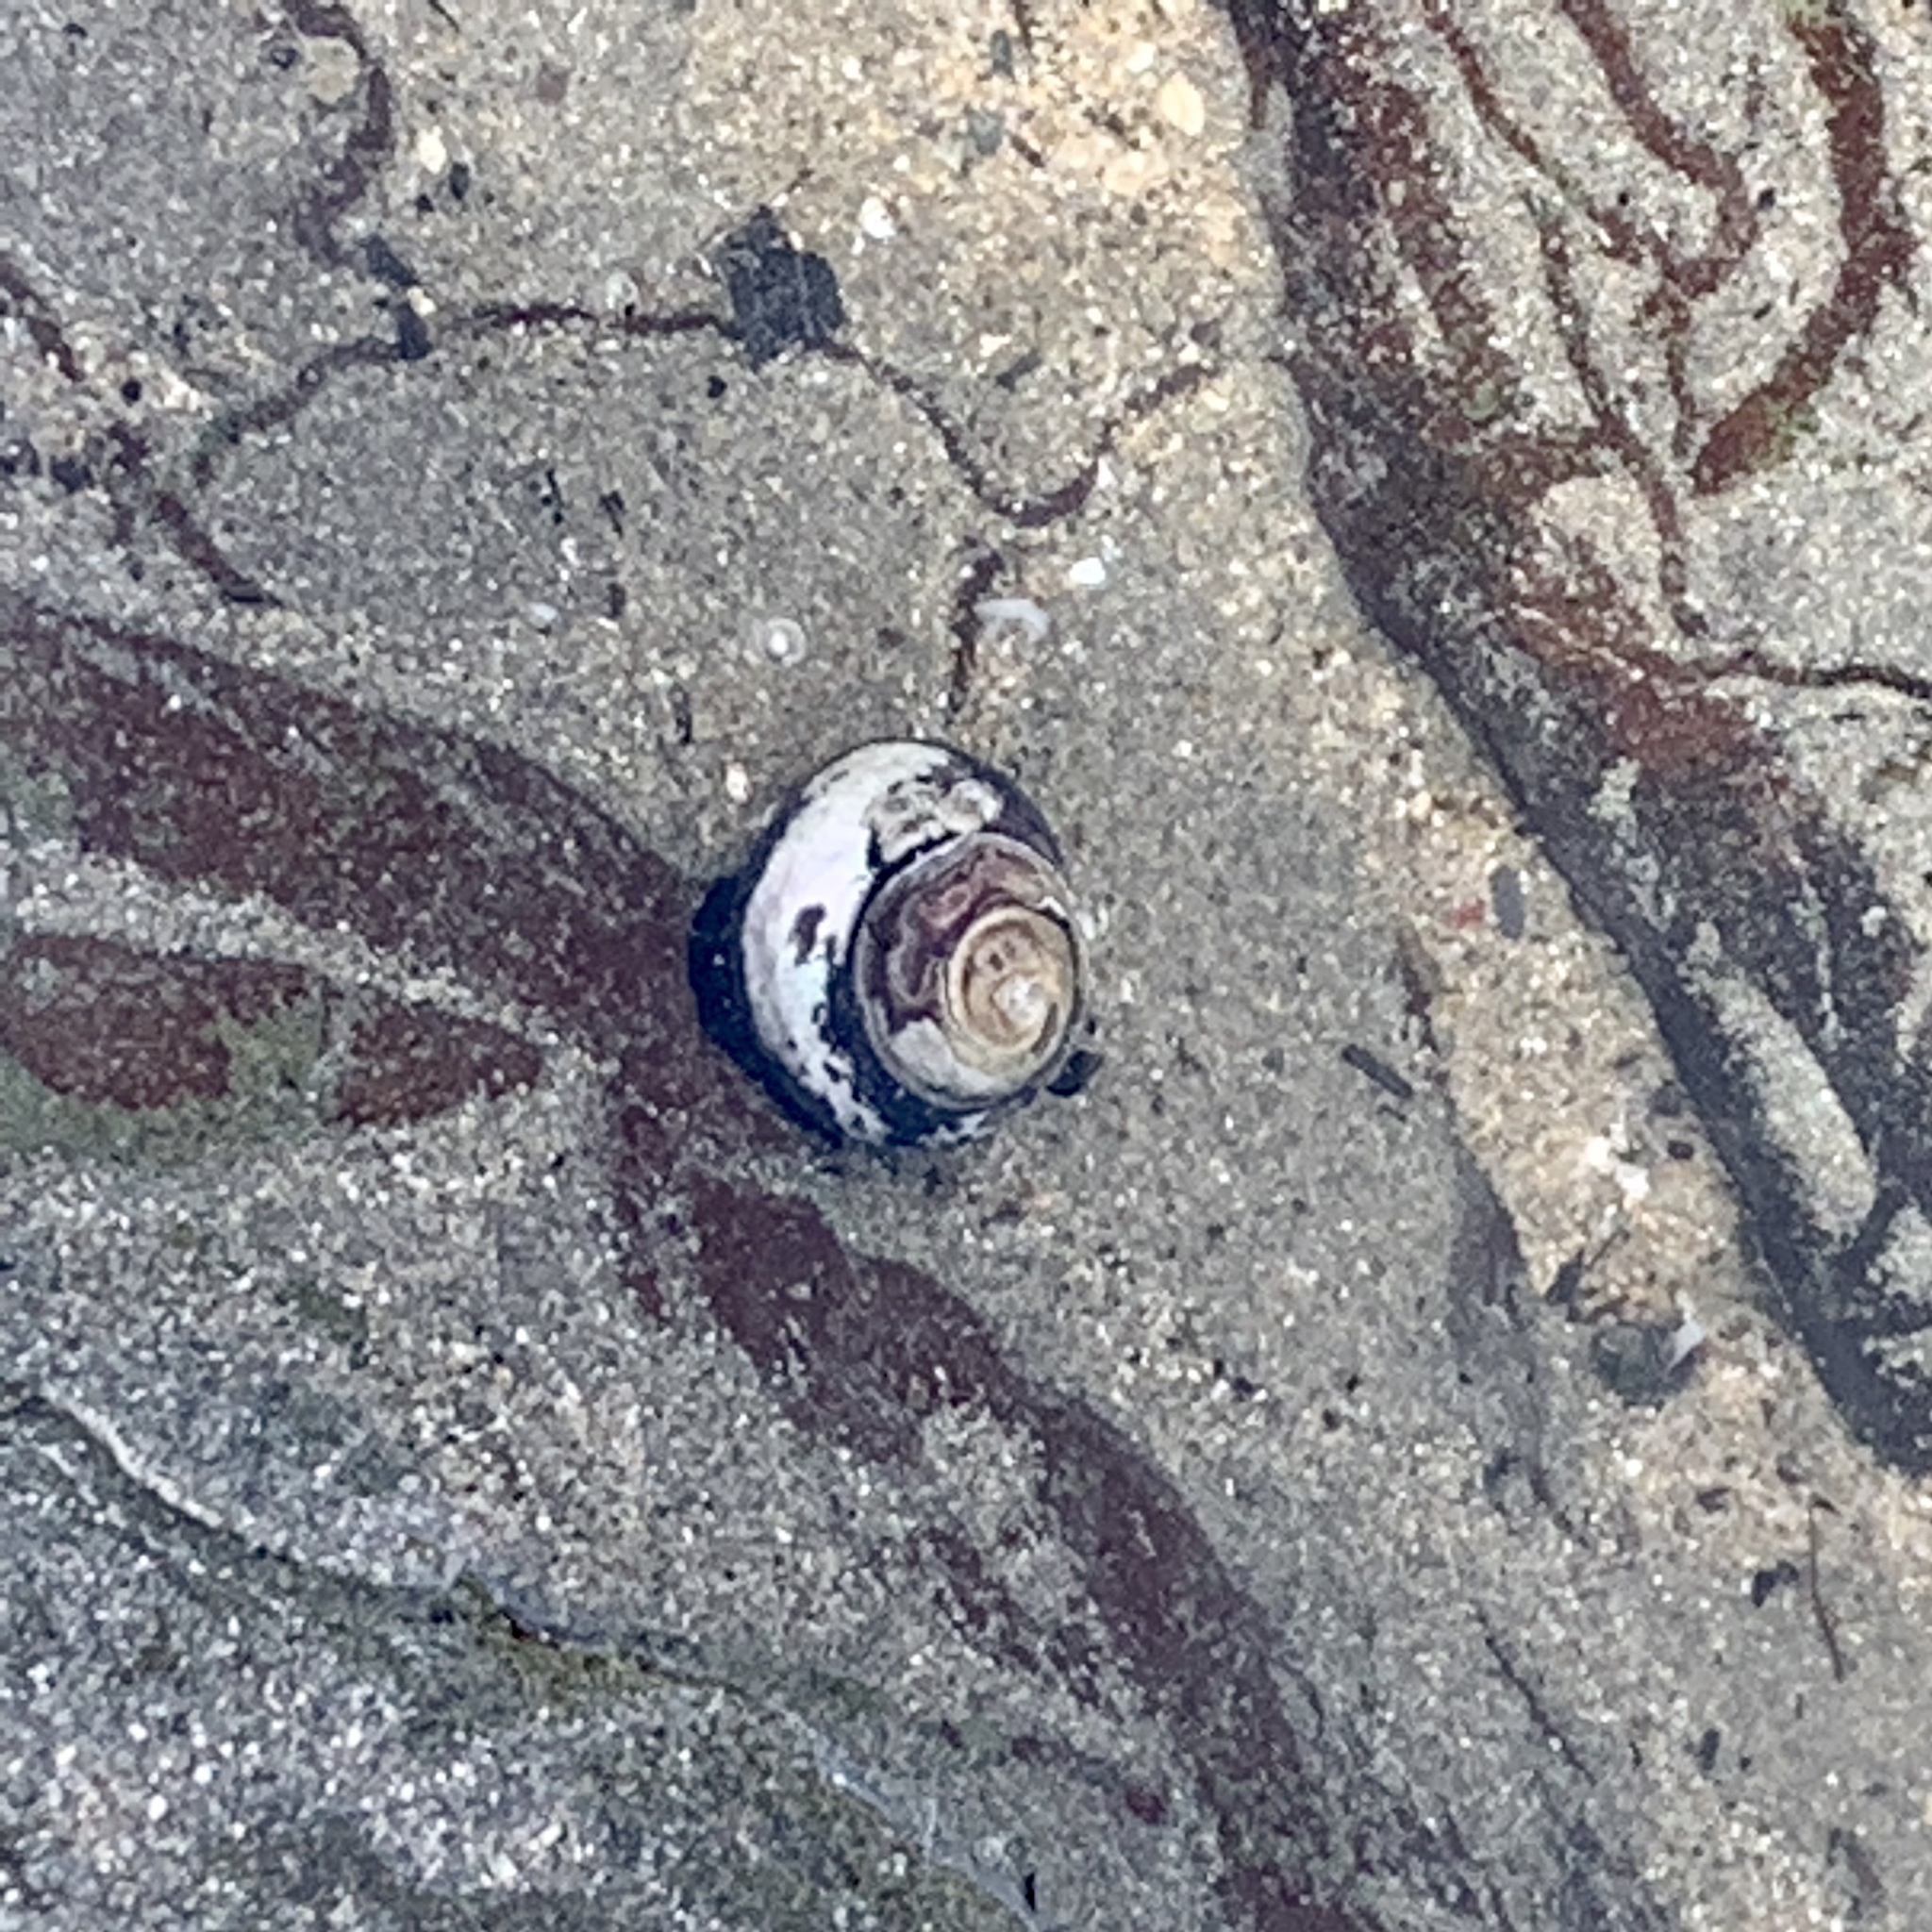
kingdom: Animalia
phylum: Mollusca
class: Gastropoda
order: Trochida
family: Tegulidae
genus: Tegula
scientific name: Tegula funebralis
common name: Black tegula
